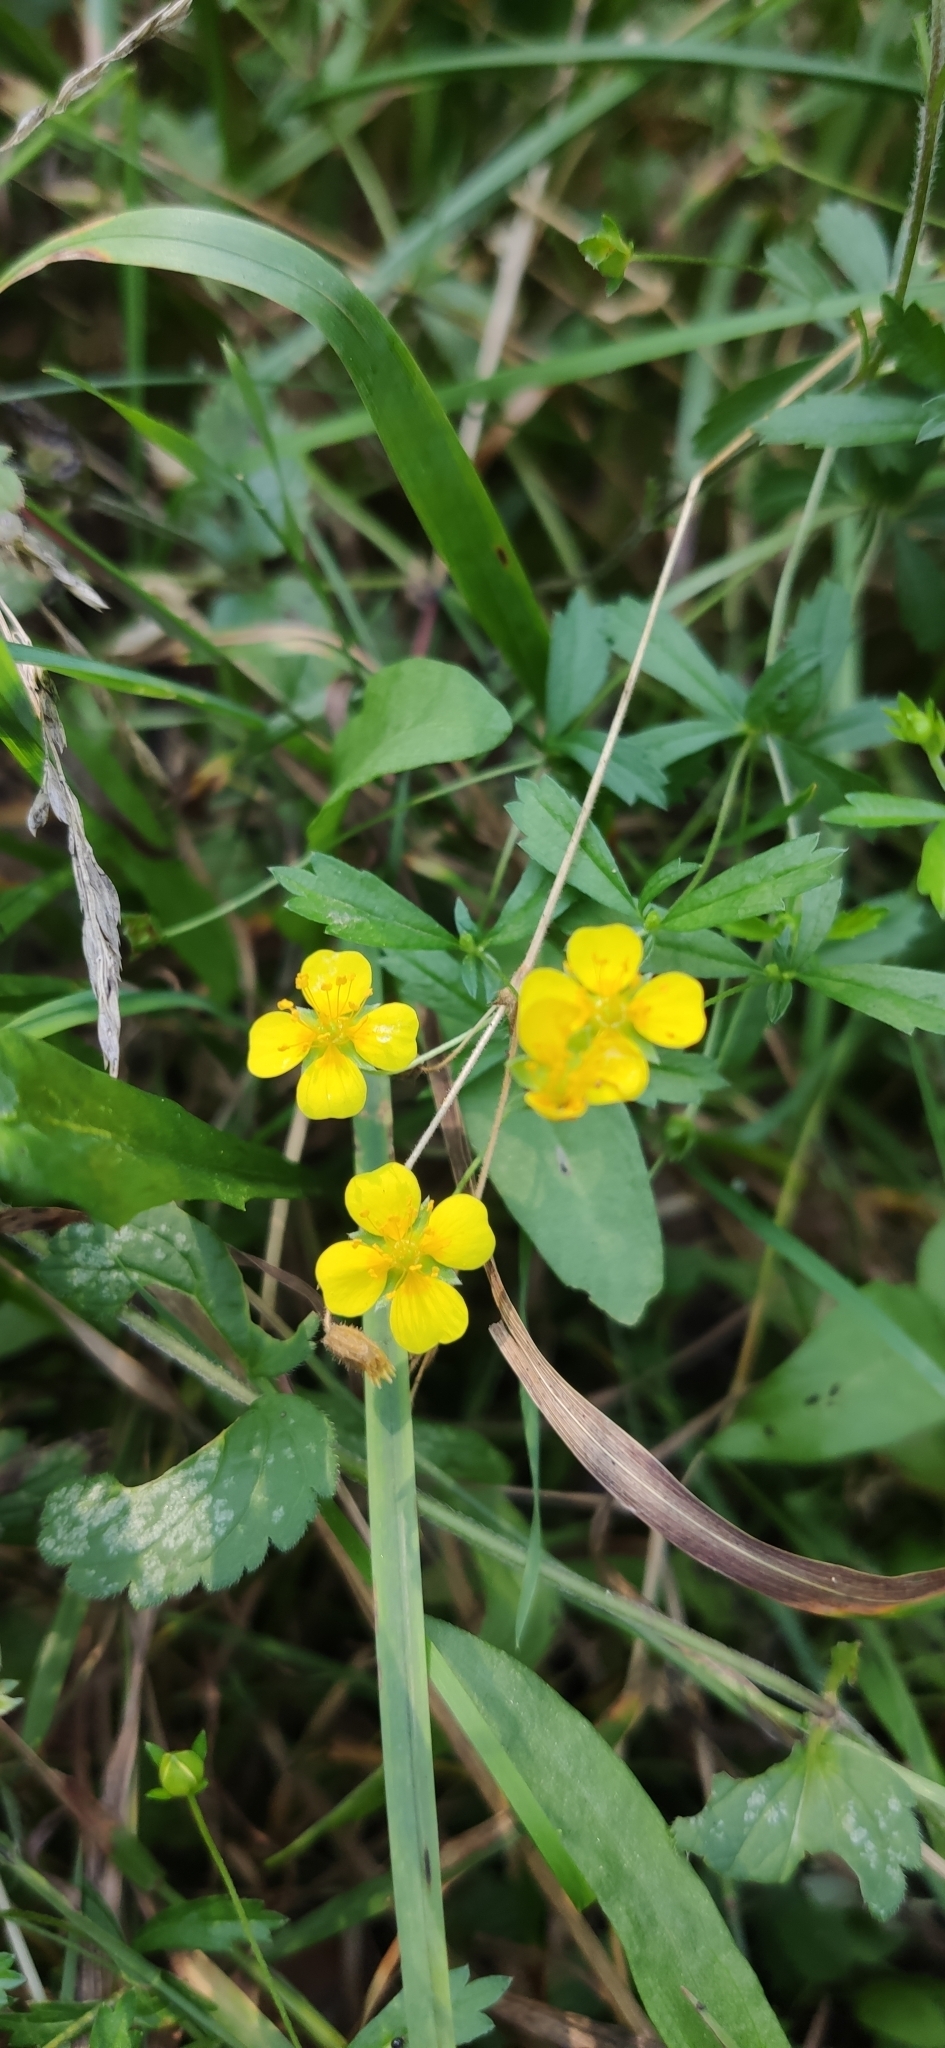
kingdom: Plantae
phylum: Tracheophyta
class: Magnoliopsida
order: Rosales
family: Rosaceae
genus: Potentilla
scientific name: Potentilla erecta
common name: Tormentil
